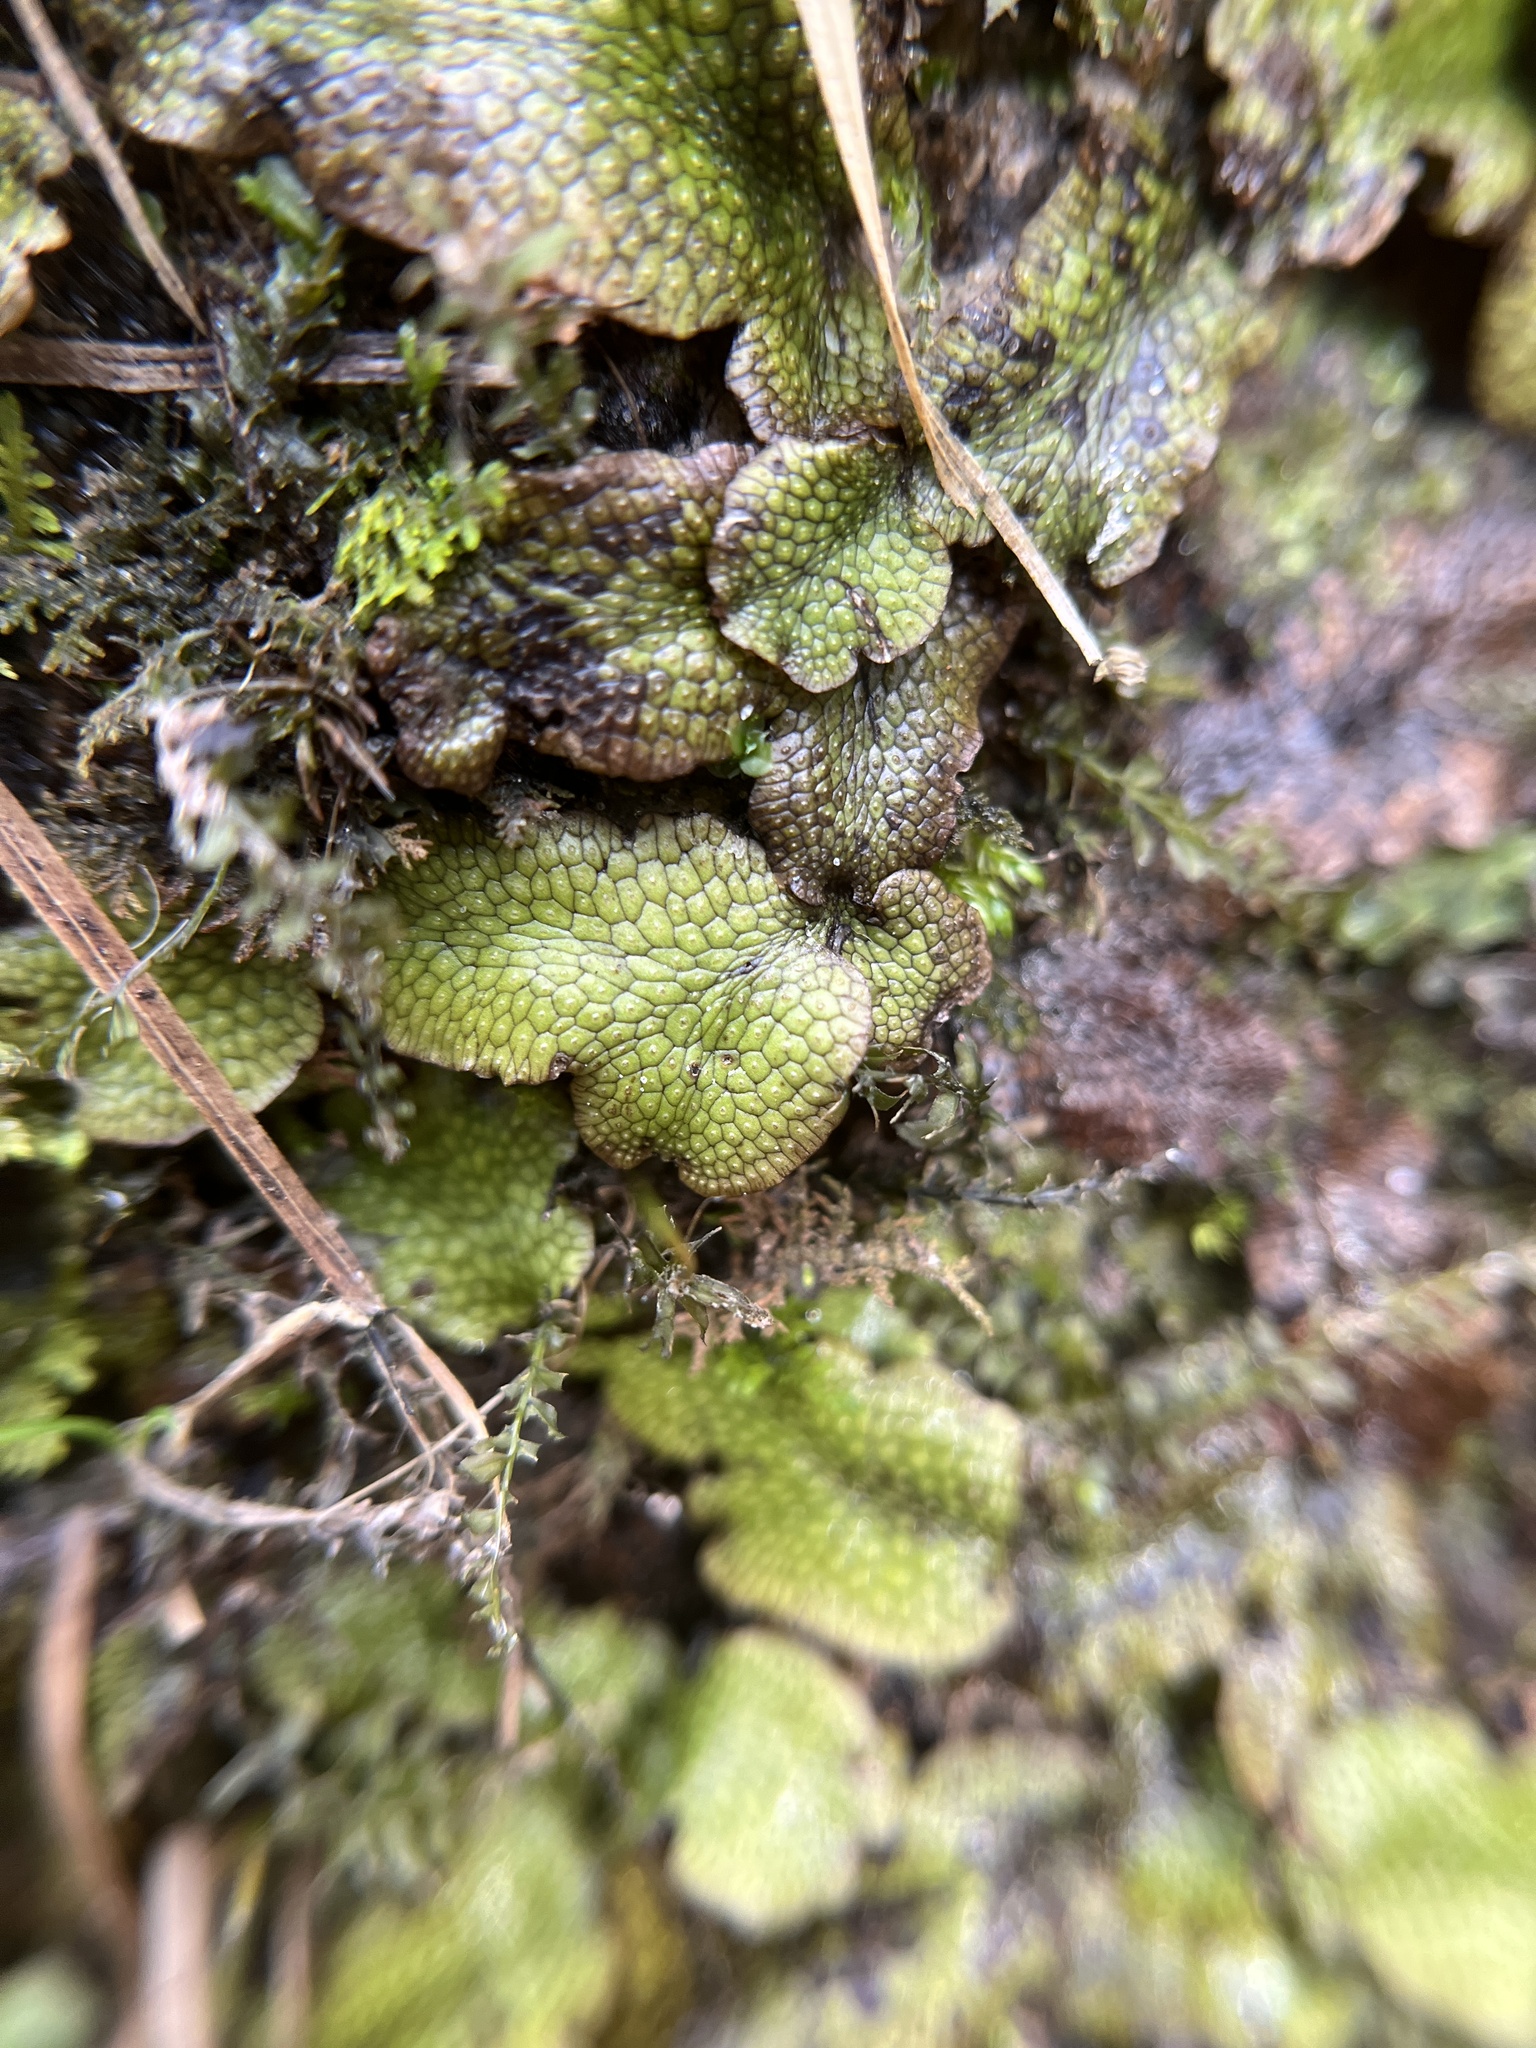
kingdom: Plantae
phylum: Marchantiophyta
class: Marchantiopsida
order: Marchantiales
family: Conocephalaceae
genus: Conocephalum
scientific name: Conocephalum salebrosum
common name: Cat-tongue liverwort
